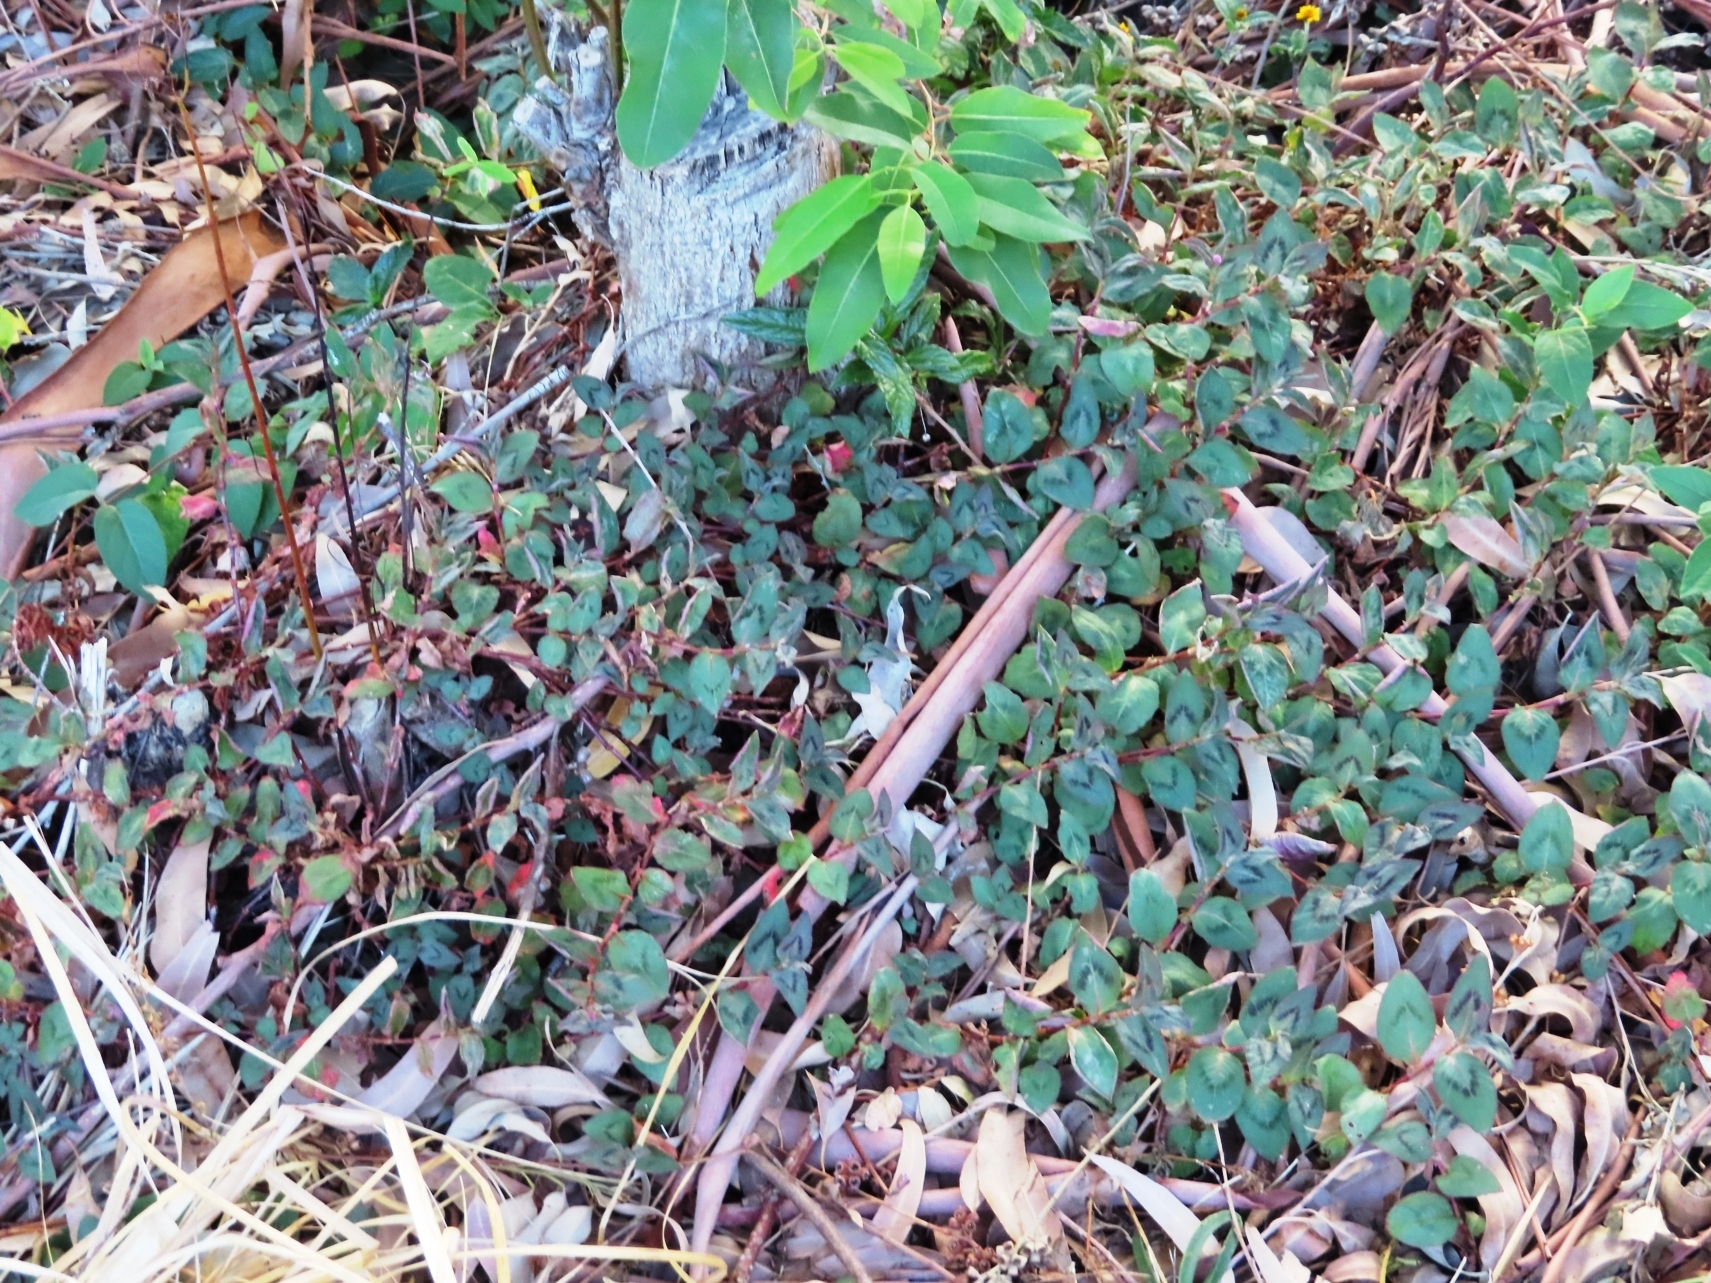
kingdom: Plantae
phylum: Tracheophyta
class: Magnoliopsida
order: Caryophyllales
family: Polygonaceae
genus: Persicaria
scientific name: Persicaria capitata
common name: Pinkhead smartweed
